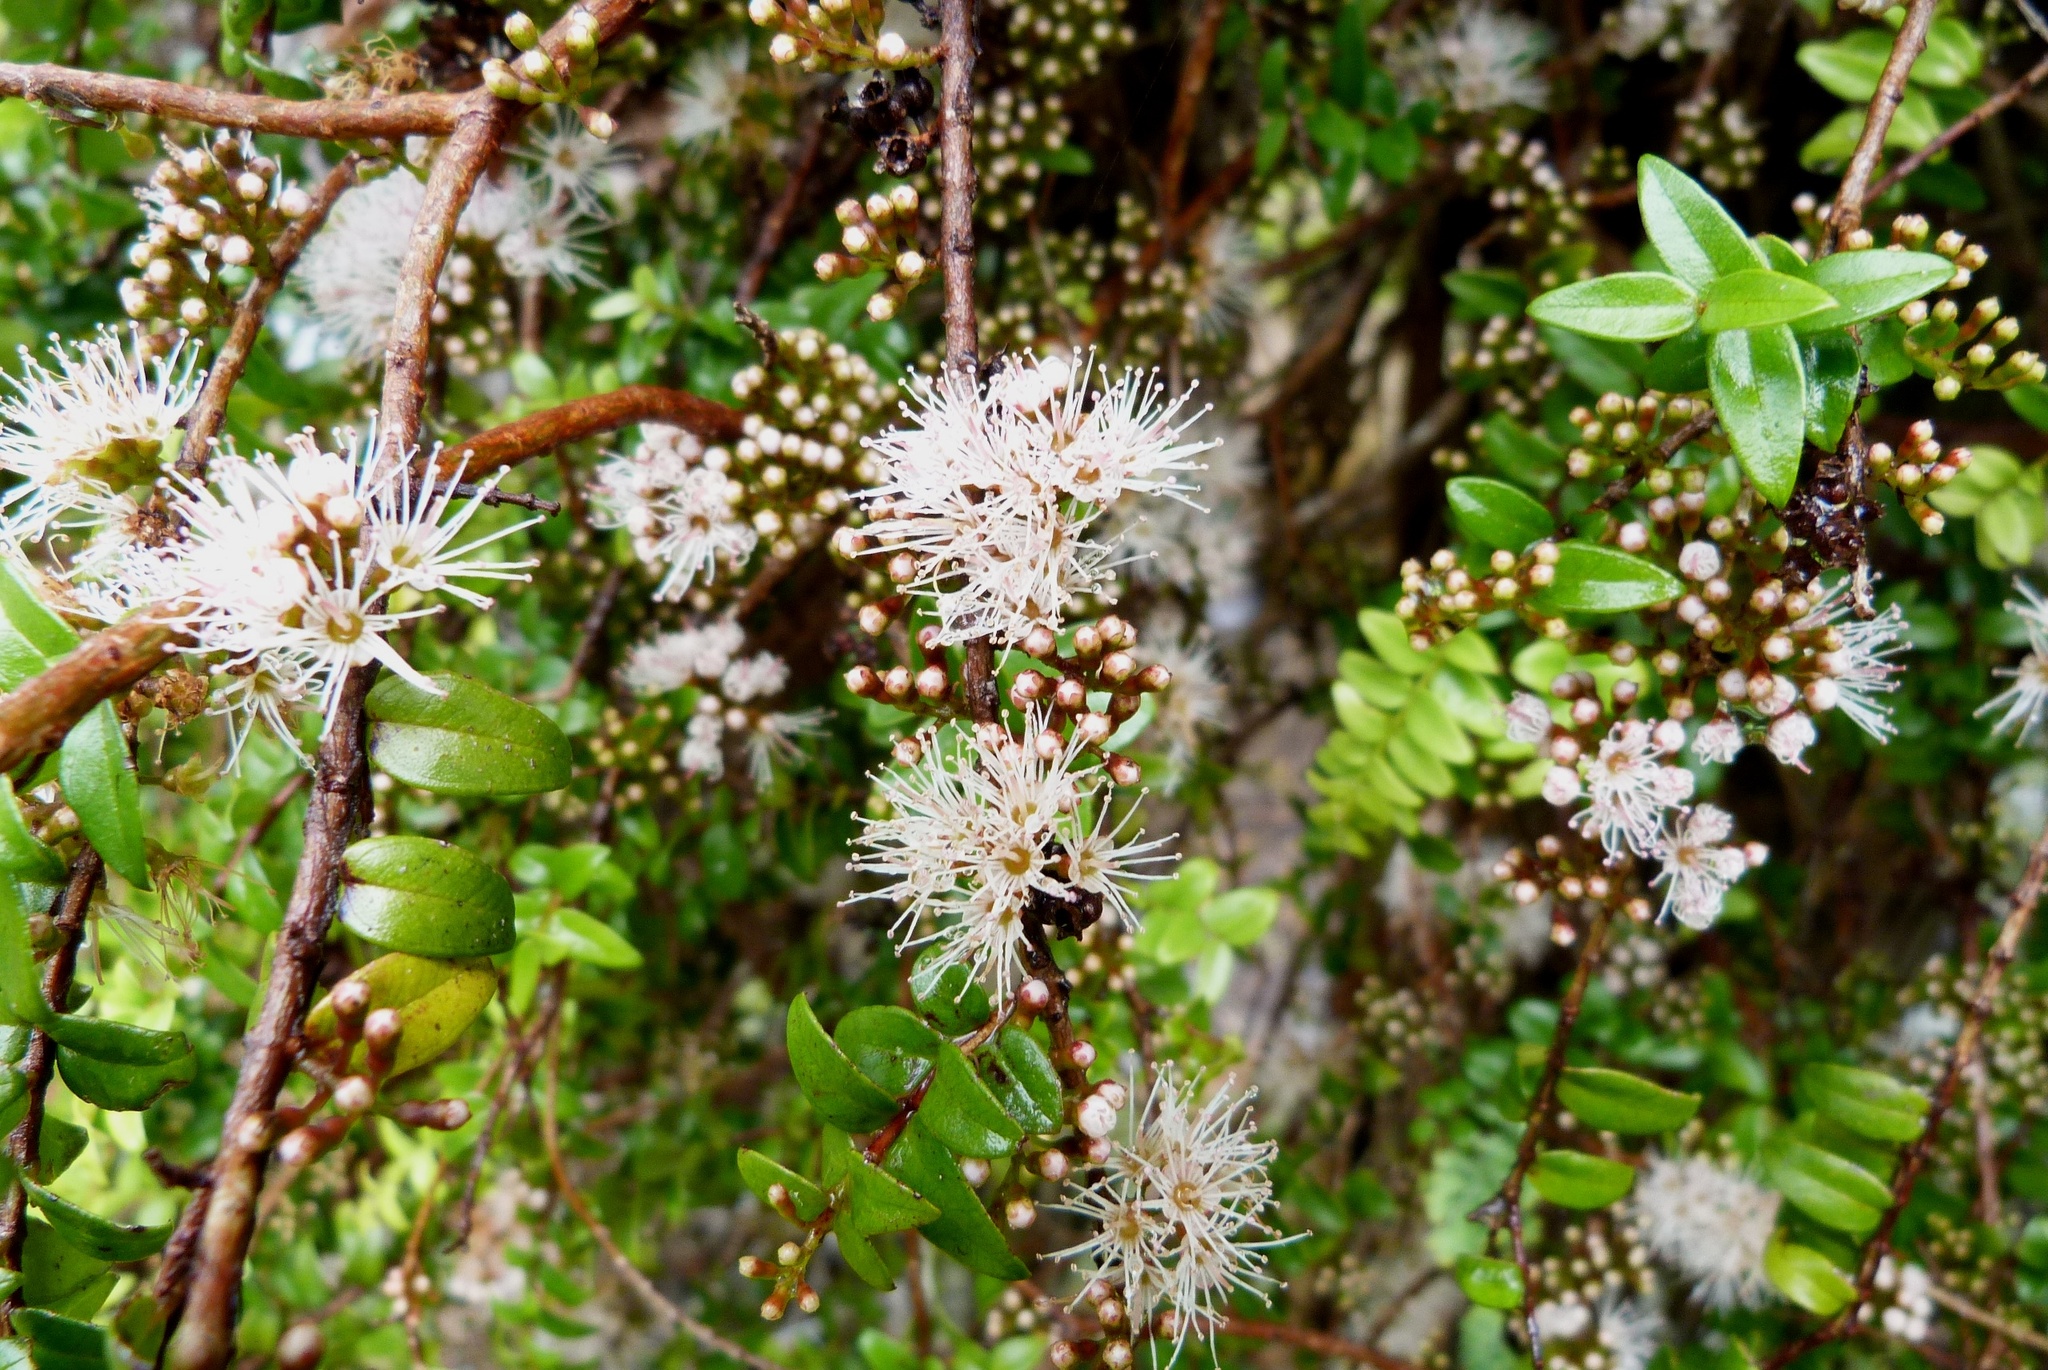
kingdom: Plantae
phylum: Tracheophyta
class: Magnoliopsida
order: Myrtales
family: Myrtaceae
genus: Metrosideros
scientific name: Metrosideros diffusa
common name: Small ratavine
